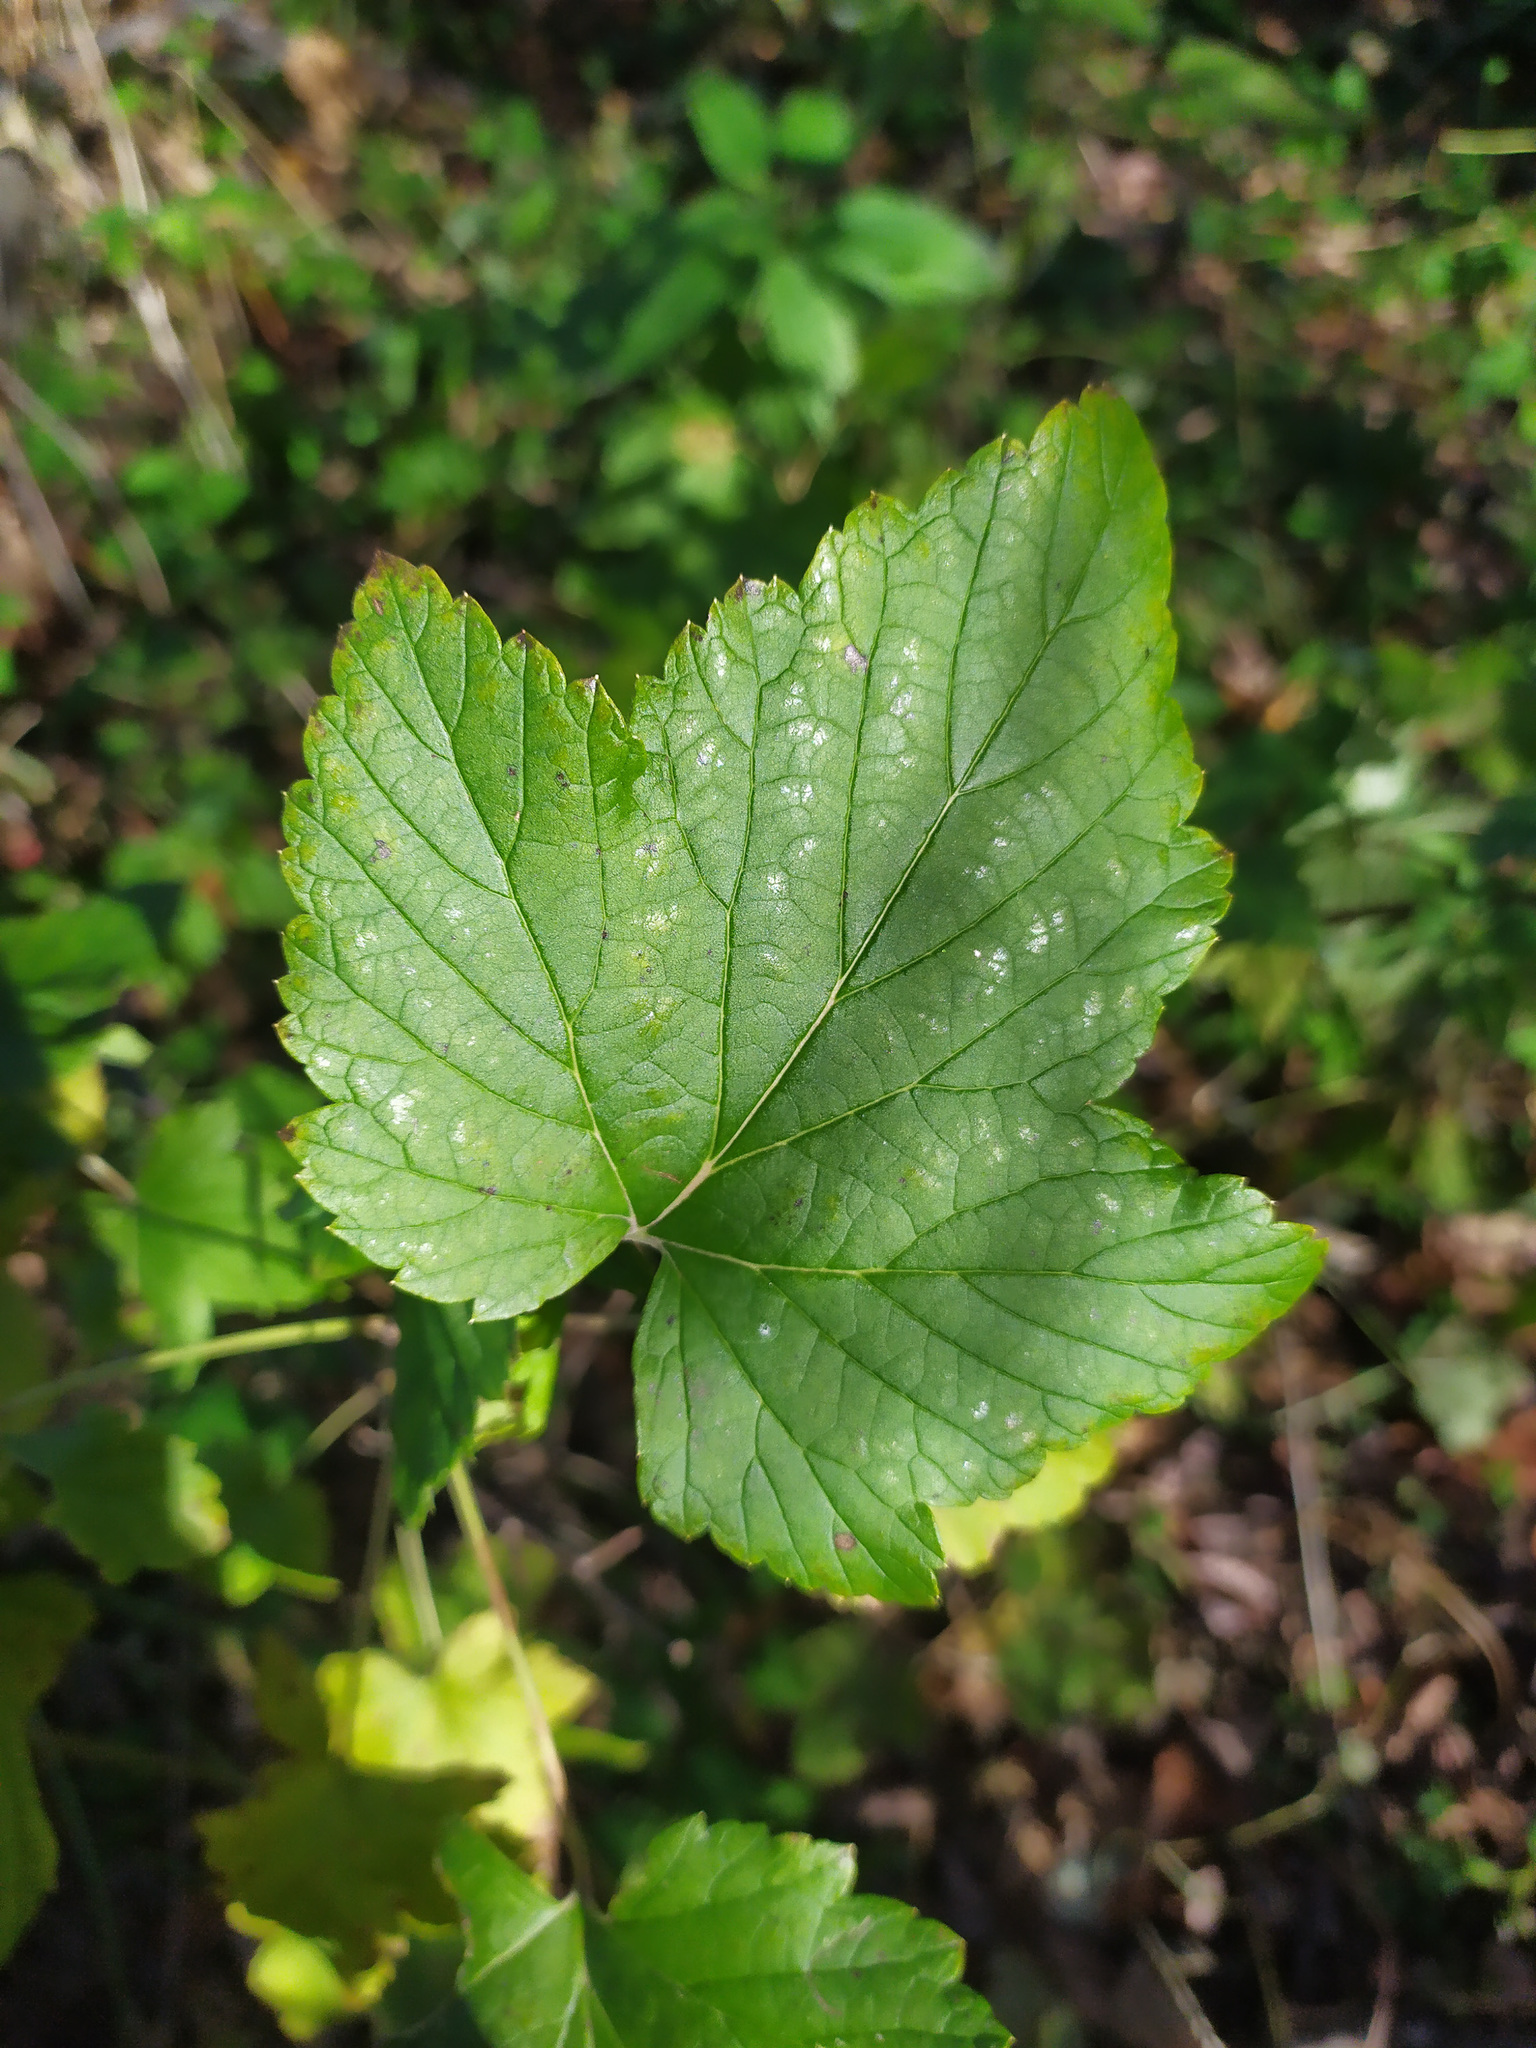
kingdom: Plantae
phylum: Tracheophyta
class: Magnoliopsida
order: Saxifragales
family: Grossulariaceae
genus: Ribes
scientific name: Ribes nigrum
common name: Black currant
